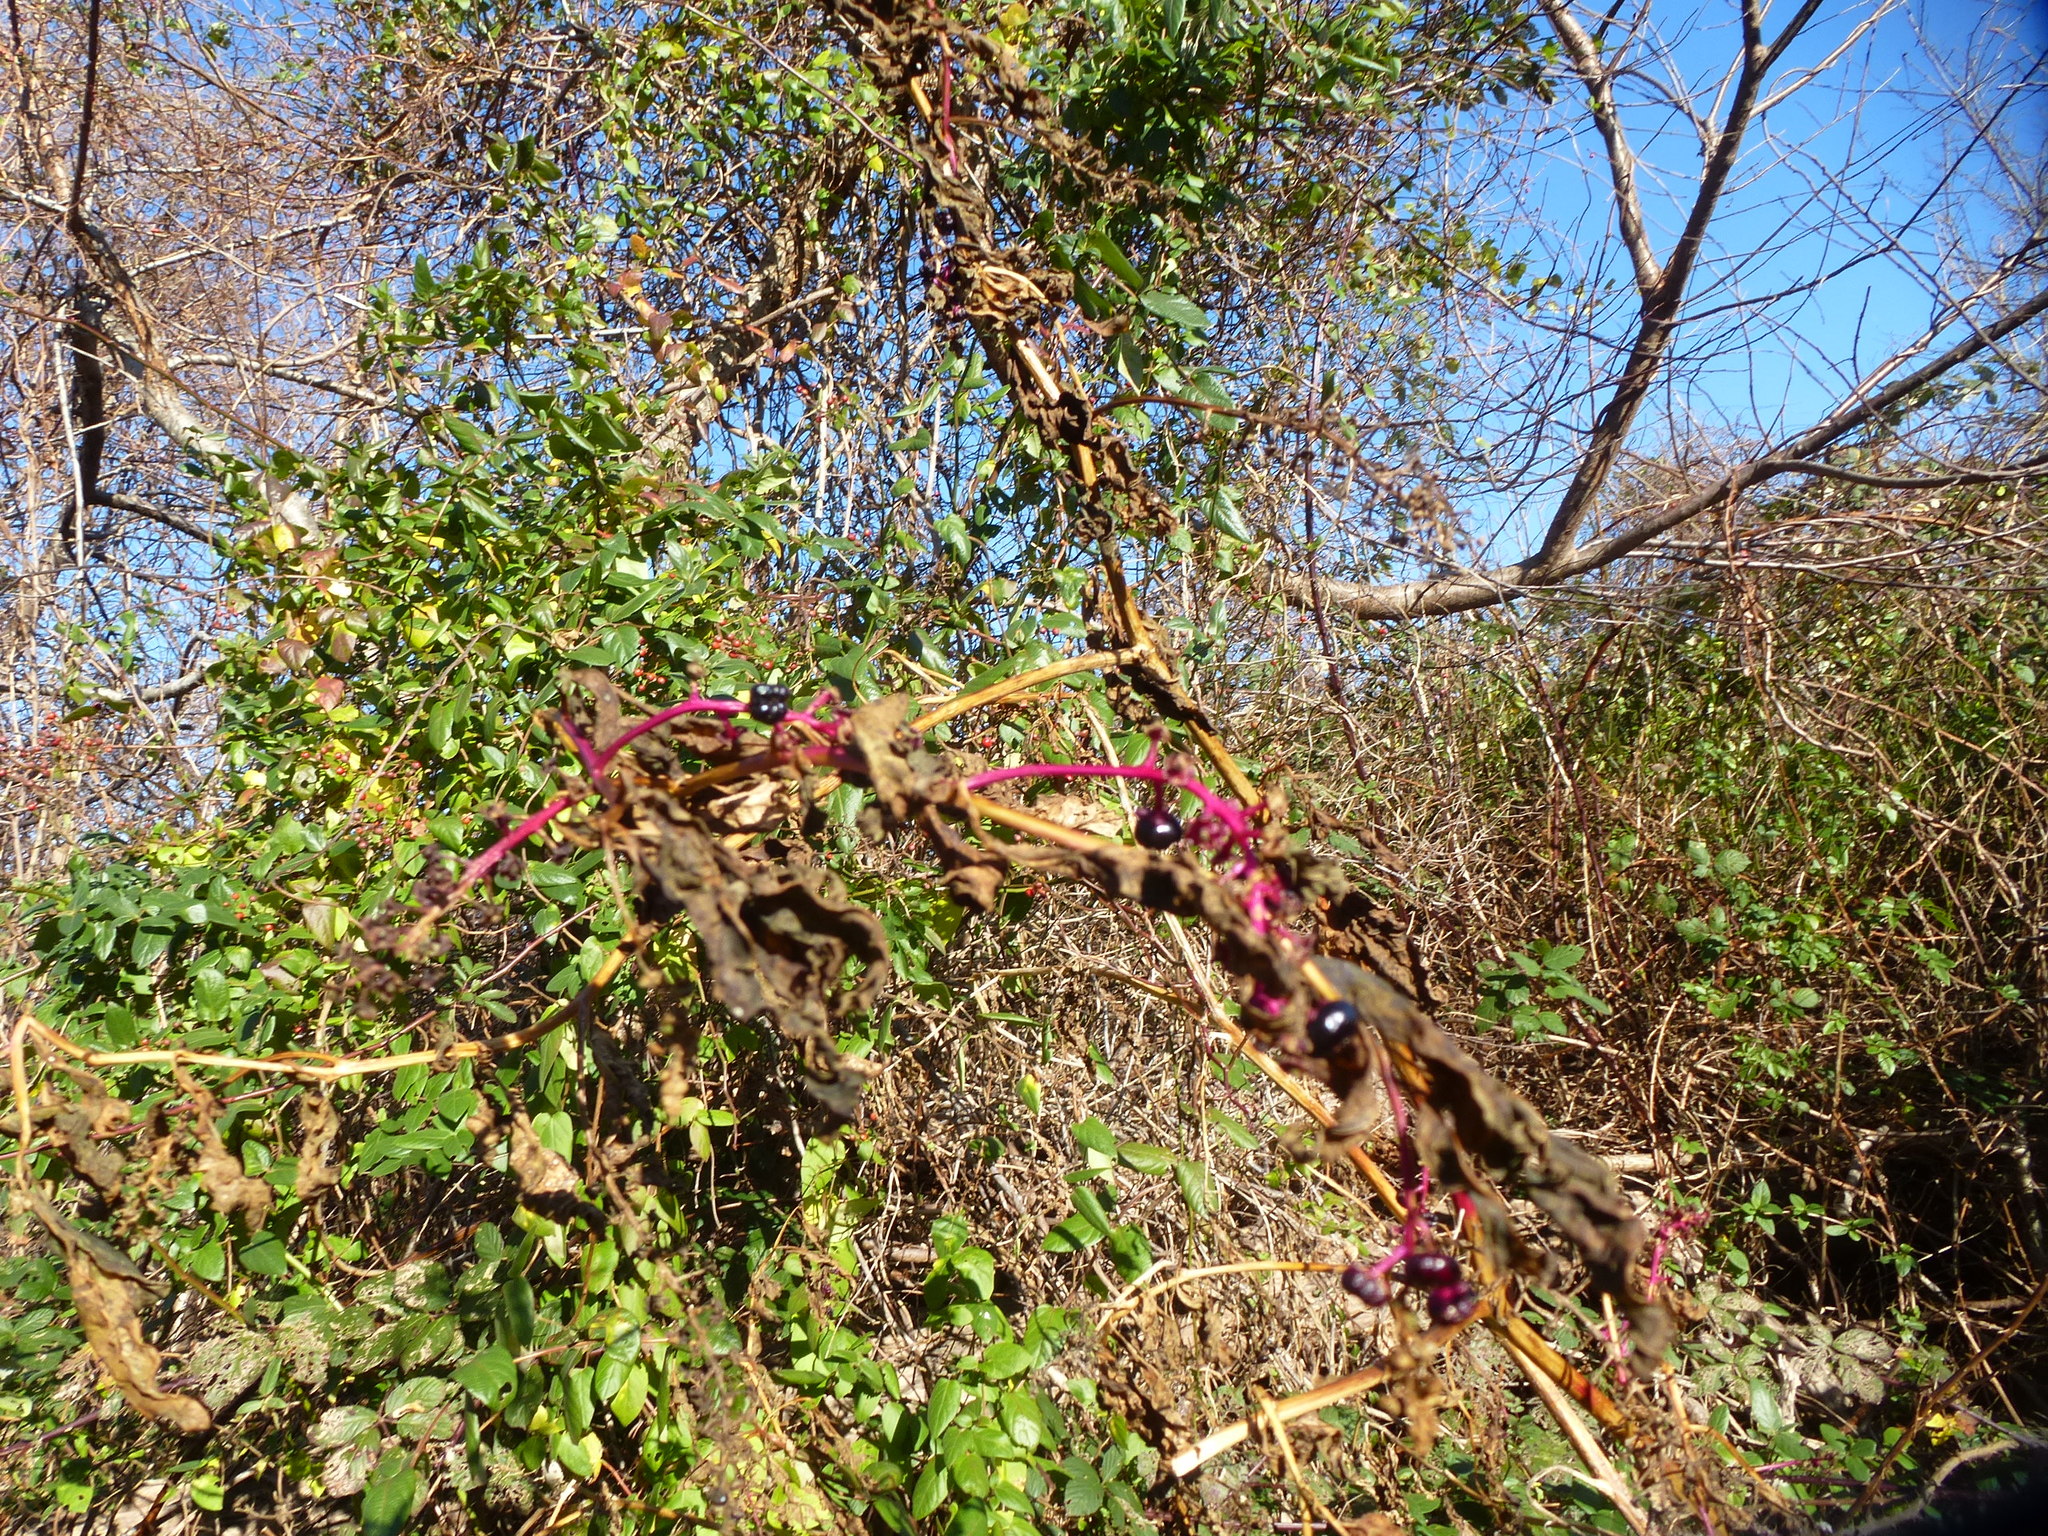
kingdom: Plantae
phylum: Tracheophyta
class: Magnoliopsida
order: Caryophyllales
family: Phytolaccaceae
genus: Phytolacca
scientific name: Phytolacca americana
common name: American pokeweed
